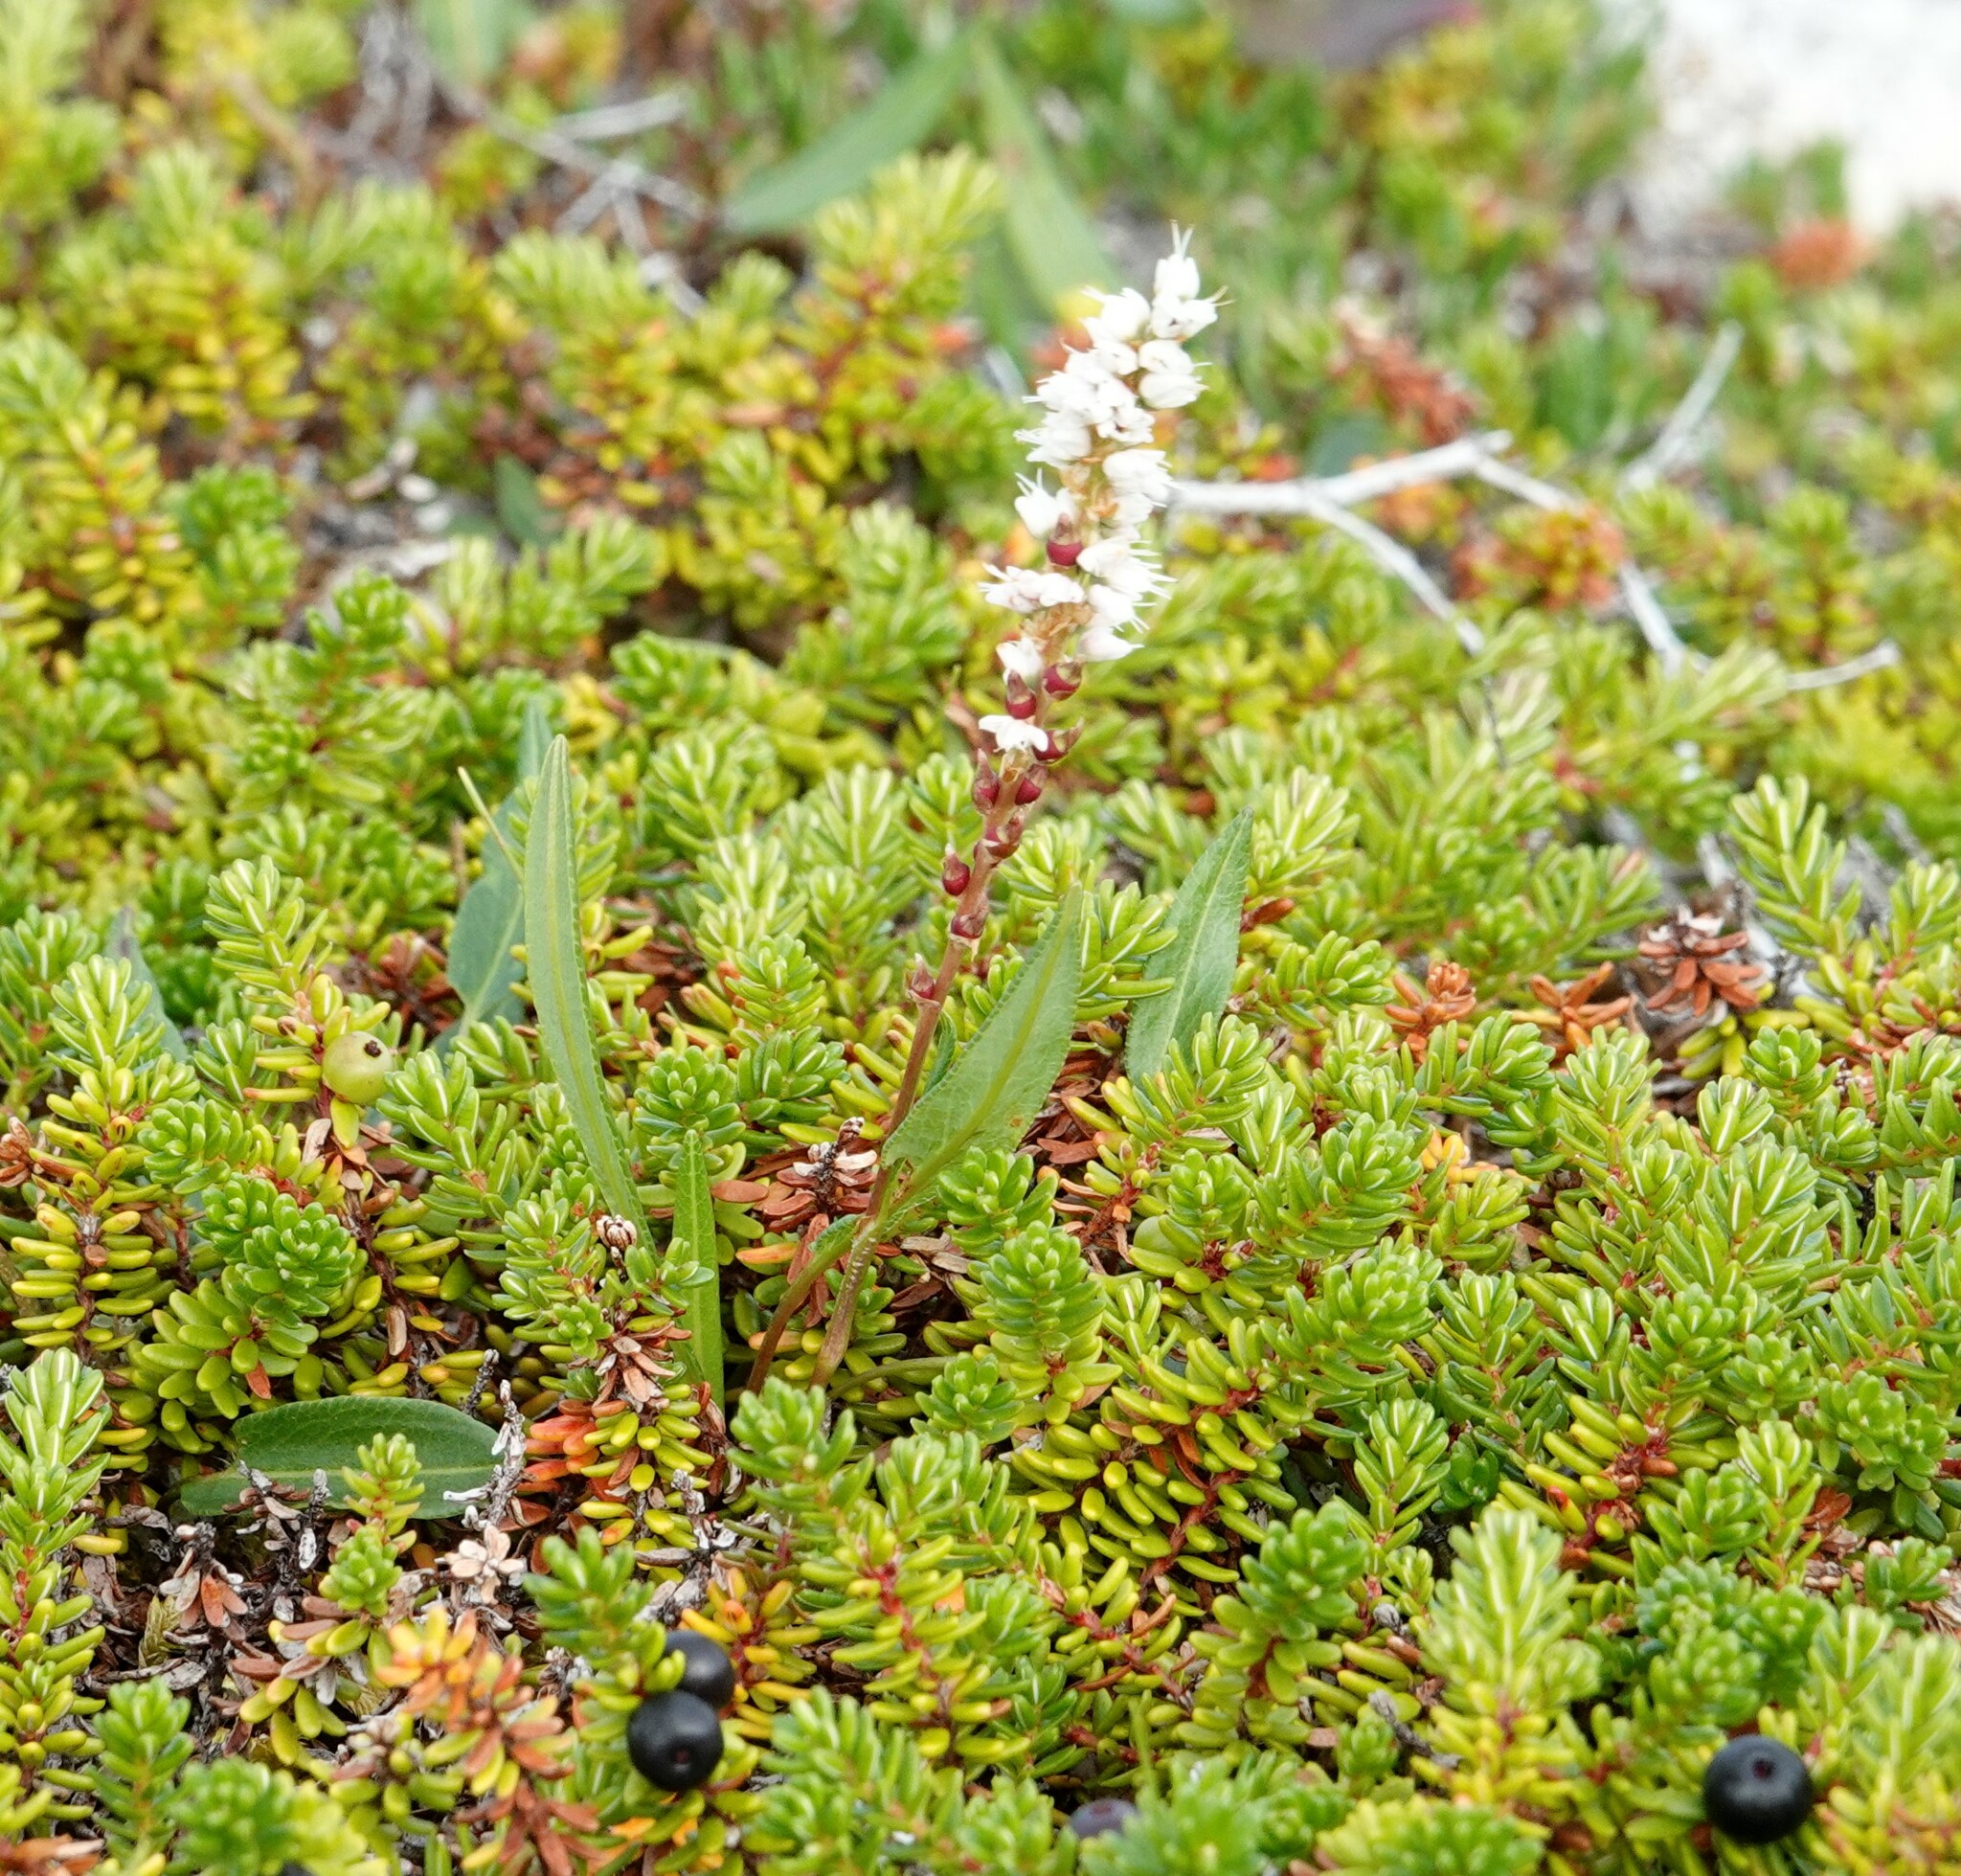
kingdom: Plantae
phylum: Tracheophyta
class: Magnoliopsida
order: Caryophyllales
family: Polygonaceae
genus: Bistorta
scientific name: Bistorta vivipara
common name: Alpine bistort
